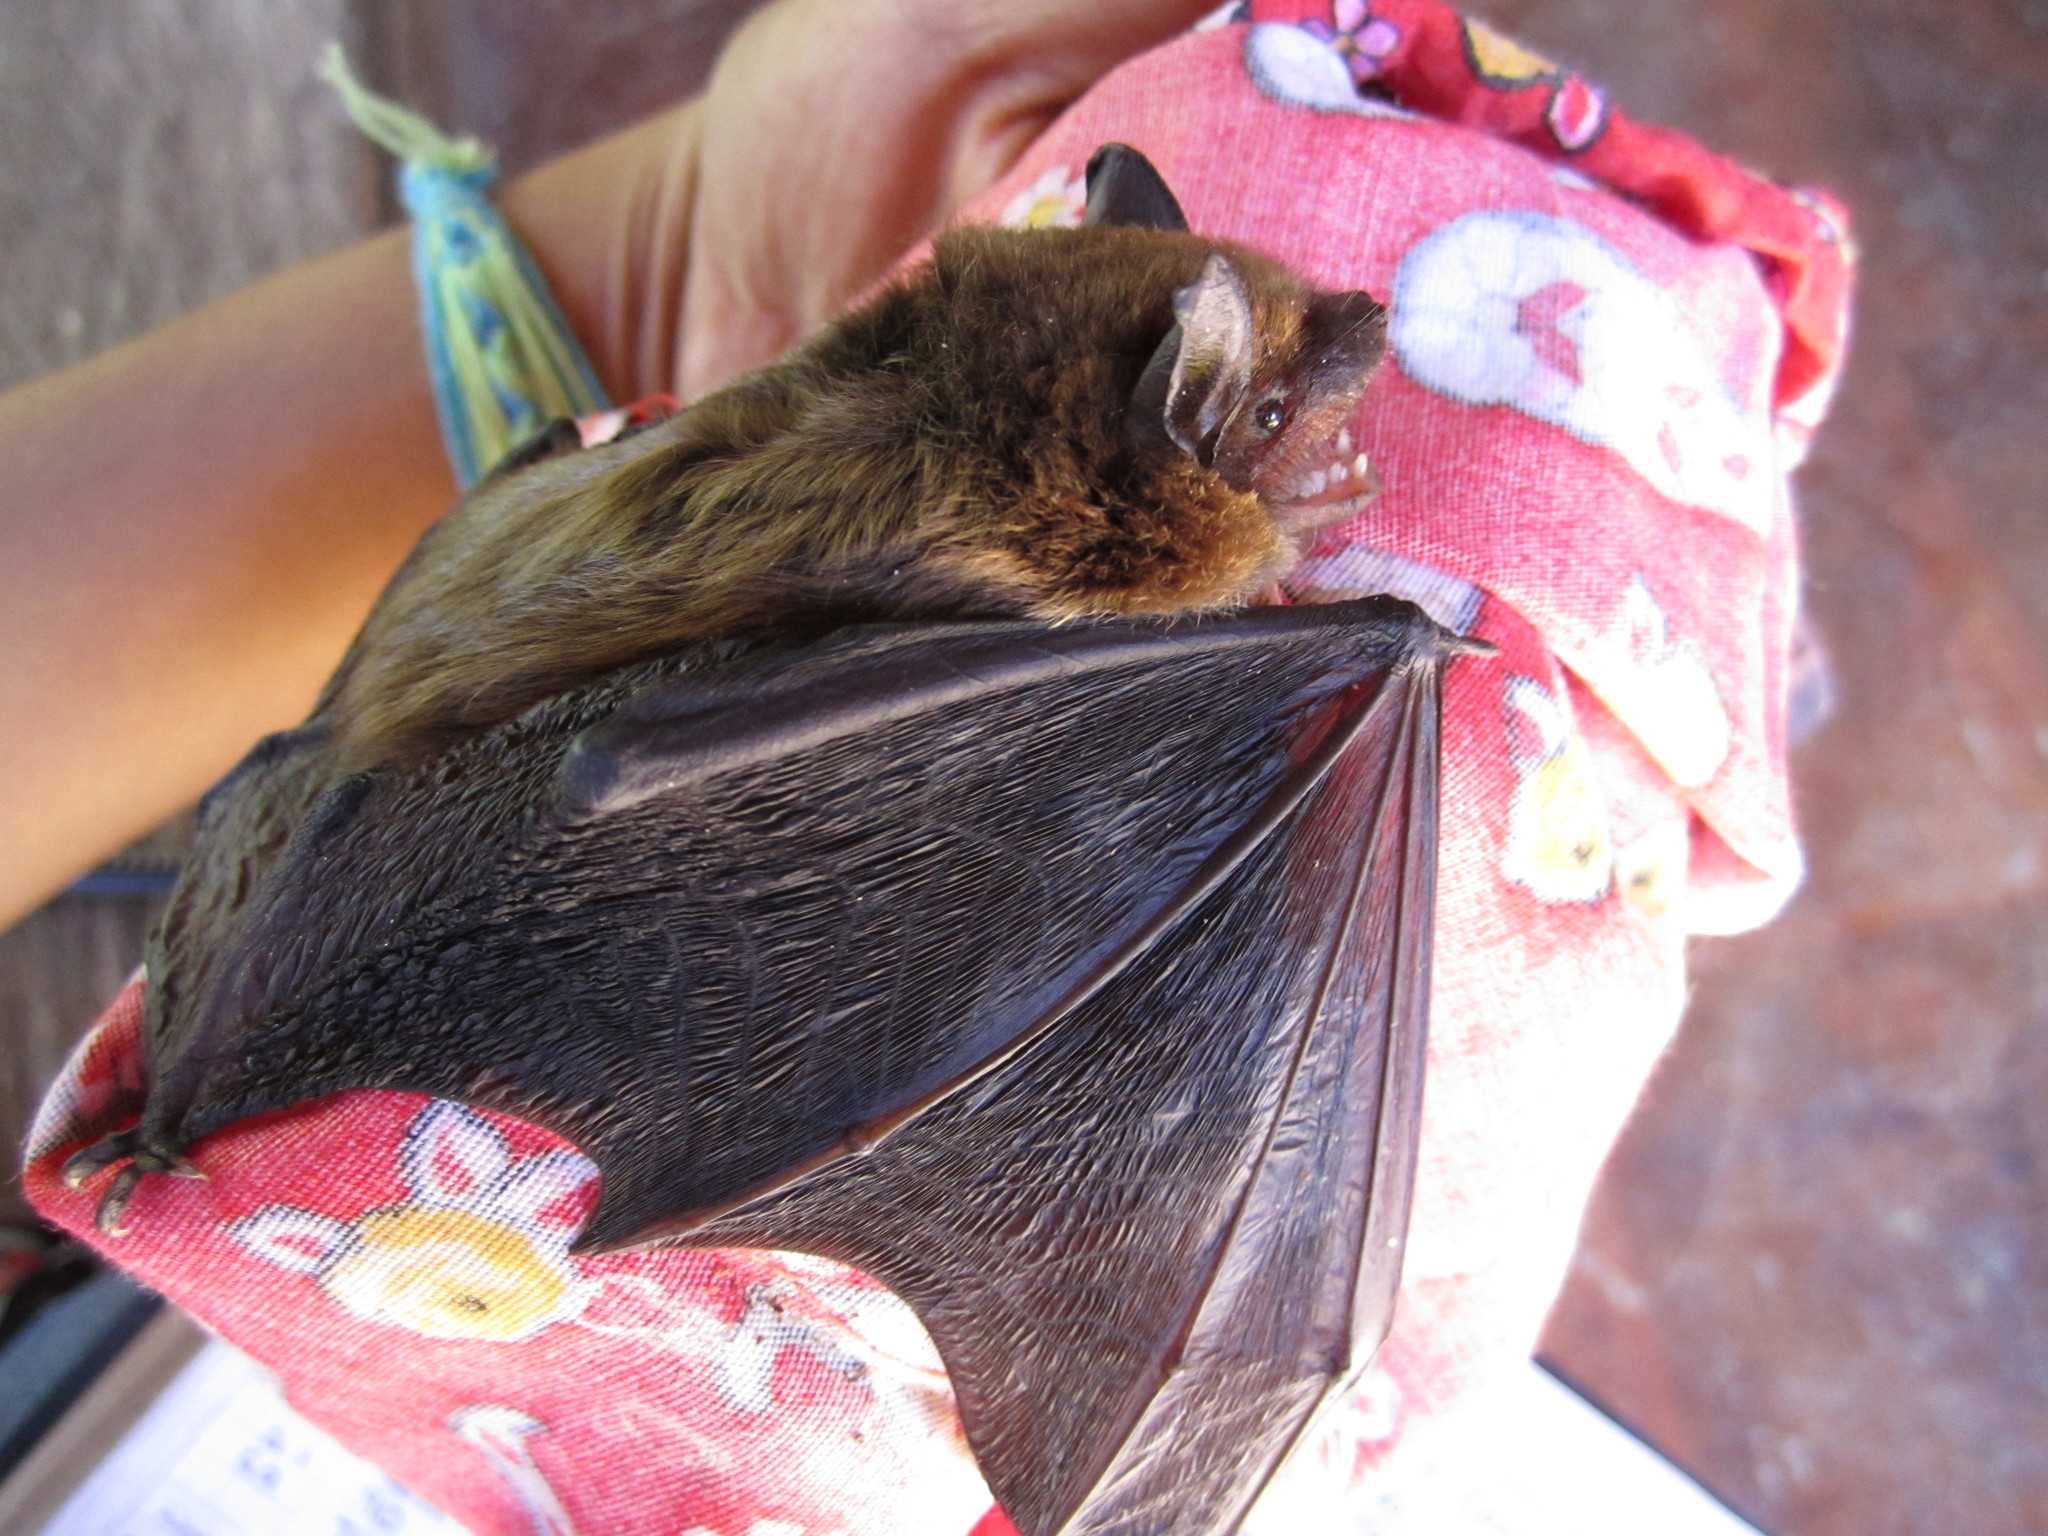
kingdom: Animalia
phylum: Chordata
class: Mammalia
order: Chiroptera
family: Vespertilionidae
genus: Eptesicus
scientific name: Eptesicus fuscus
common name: Big brown bat
